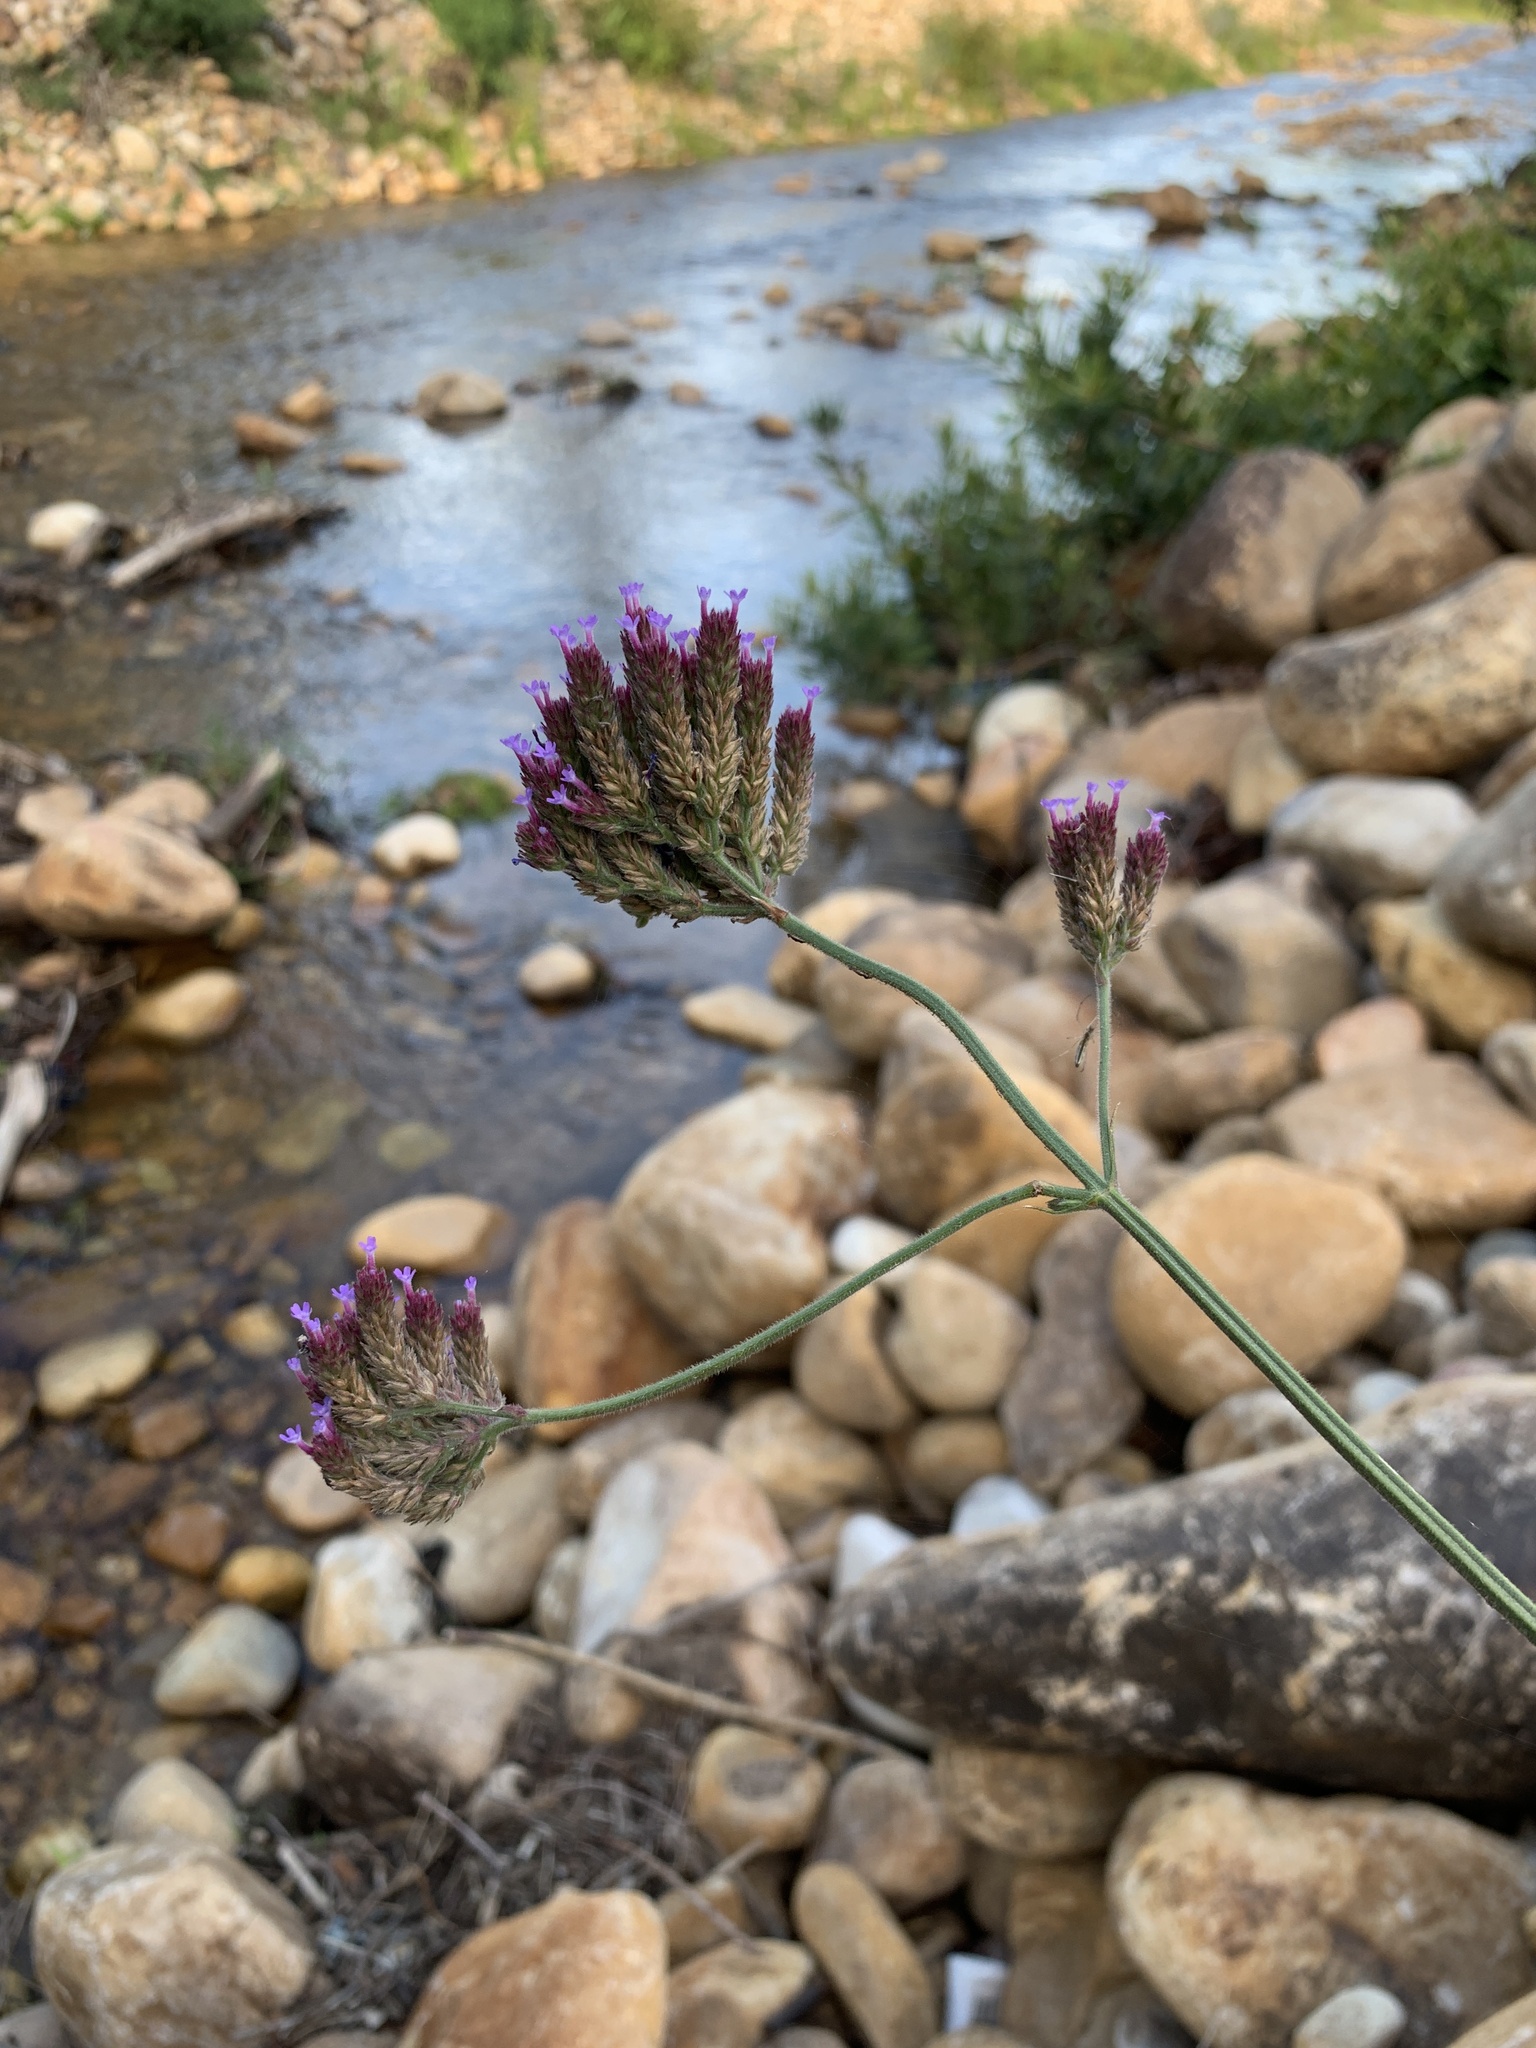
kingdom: Plantae
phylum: Tracheophyta
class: Magnoliopsida
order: Lamiales
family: Verbenaceae
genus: Verbena
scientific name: Verbena bonariensis
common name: Purpletop vervain
